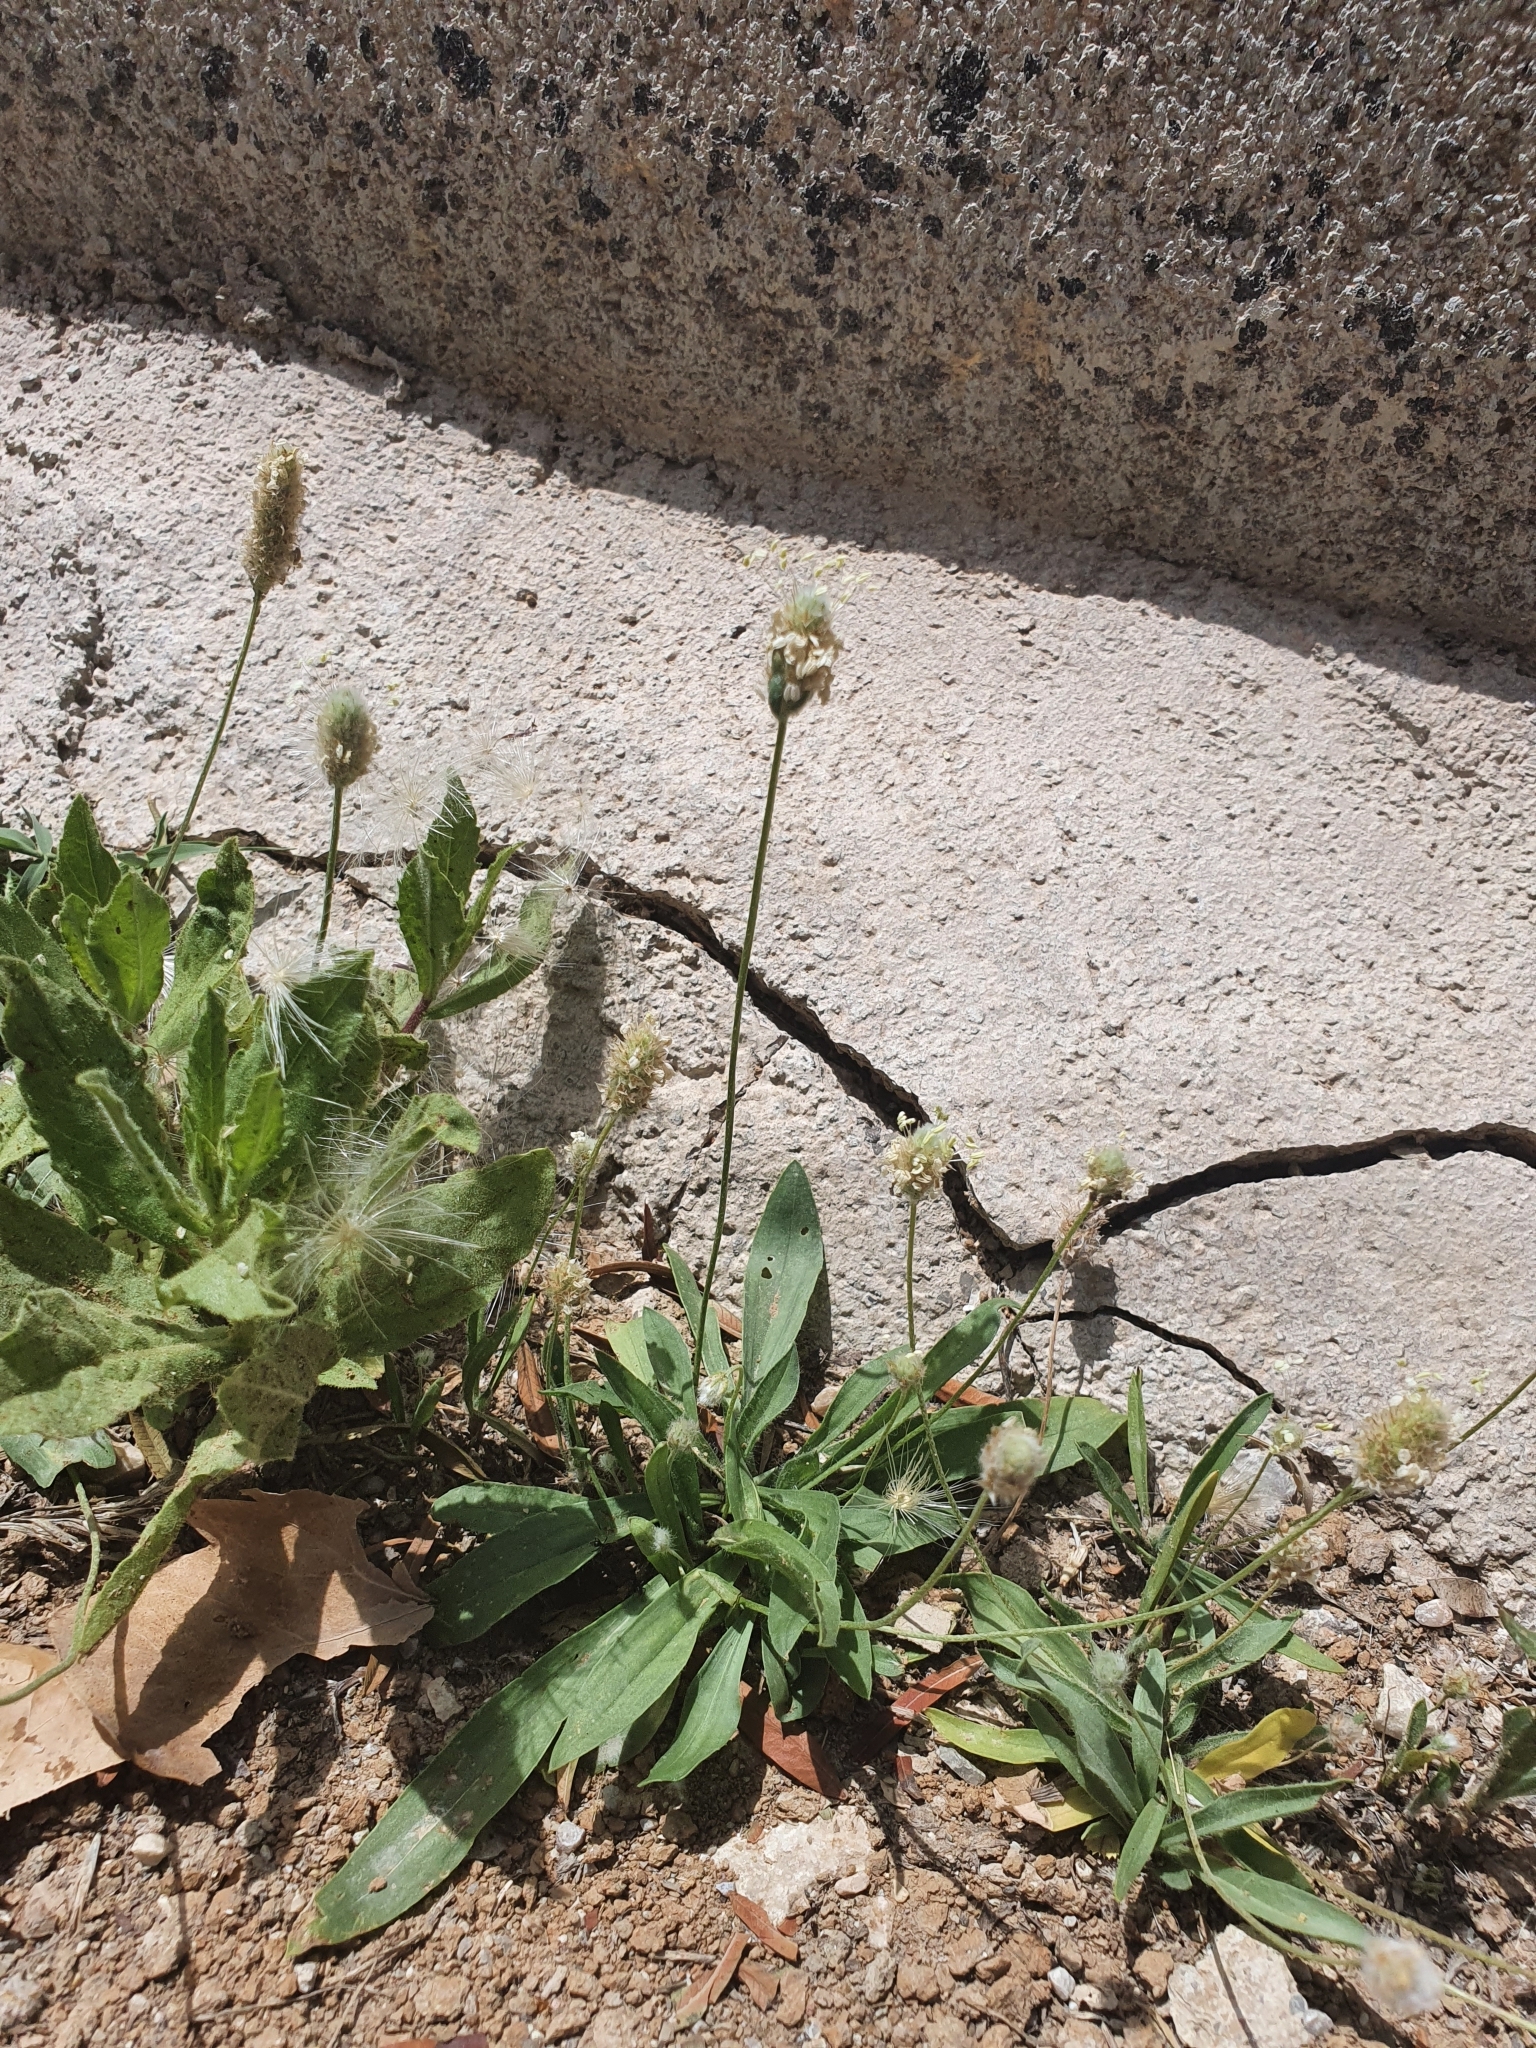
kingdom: Plantae
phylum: Tracheophyta
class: Magnoliopsida
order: Lamiales
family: Plantaginaceae
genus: Plantago
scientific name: Plantago lanceolata
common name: Ribwort plantain
